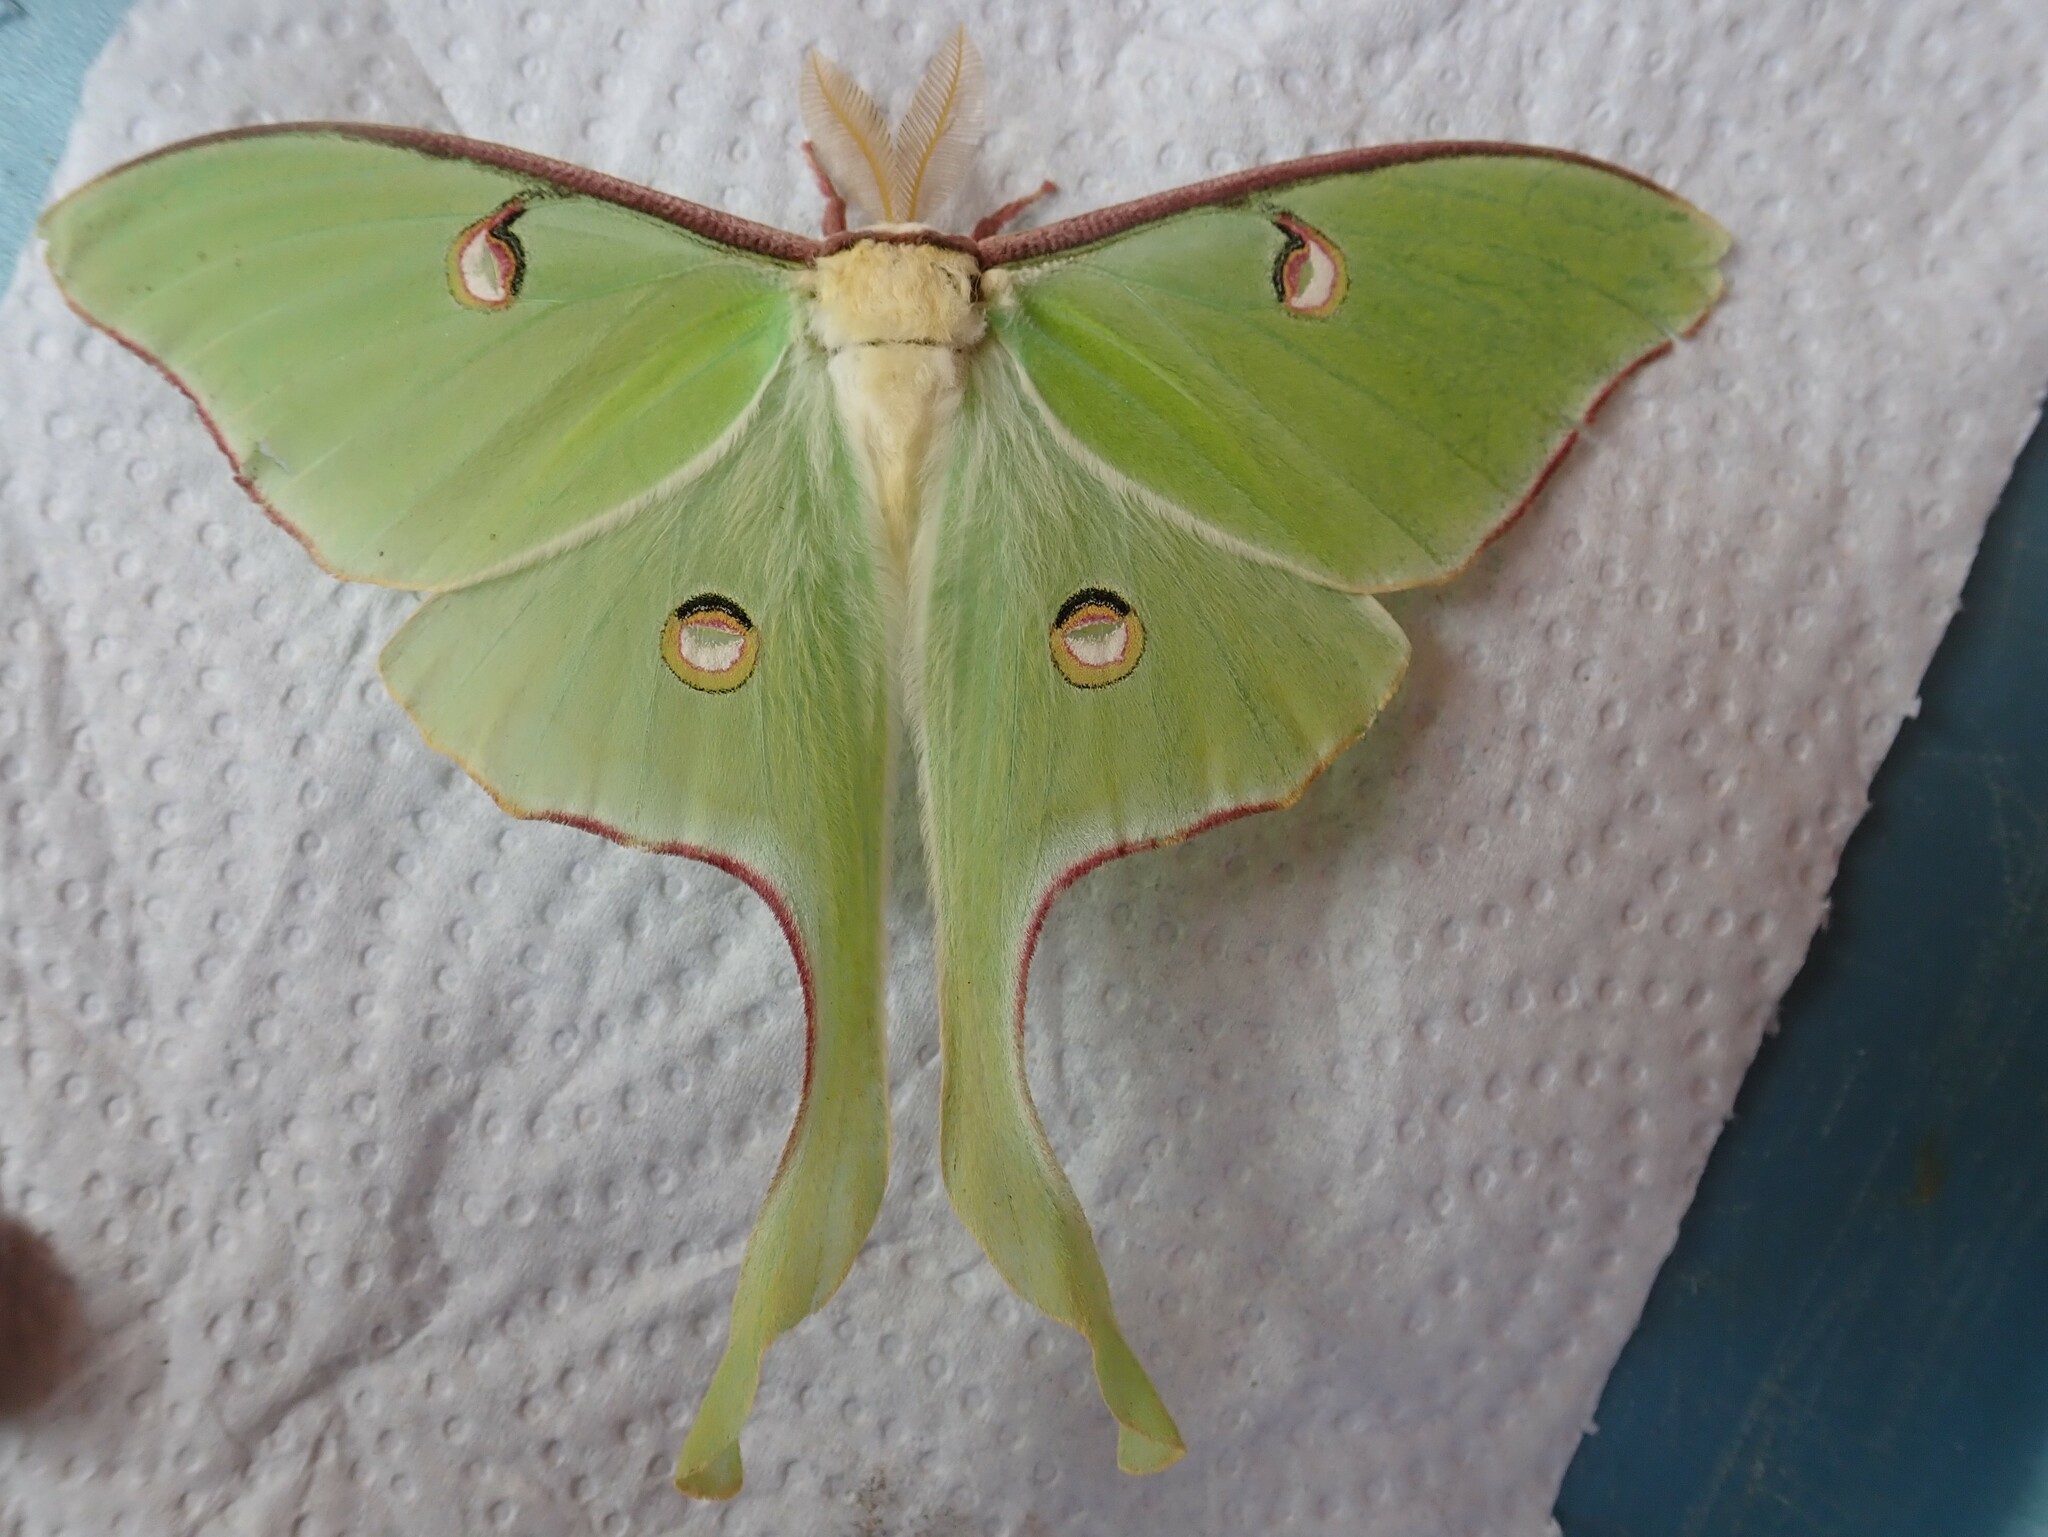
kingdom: Animalia
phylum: Arthropoda
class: Insecta
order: Lepidoptera
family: Saturniidae
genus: Actias
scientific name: Actias luna
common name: Luna moth
